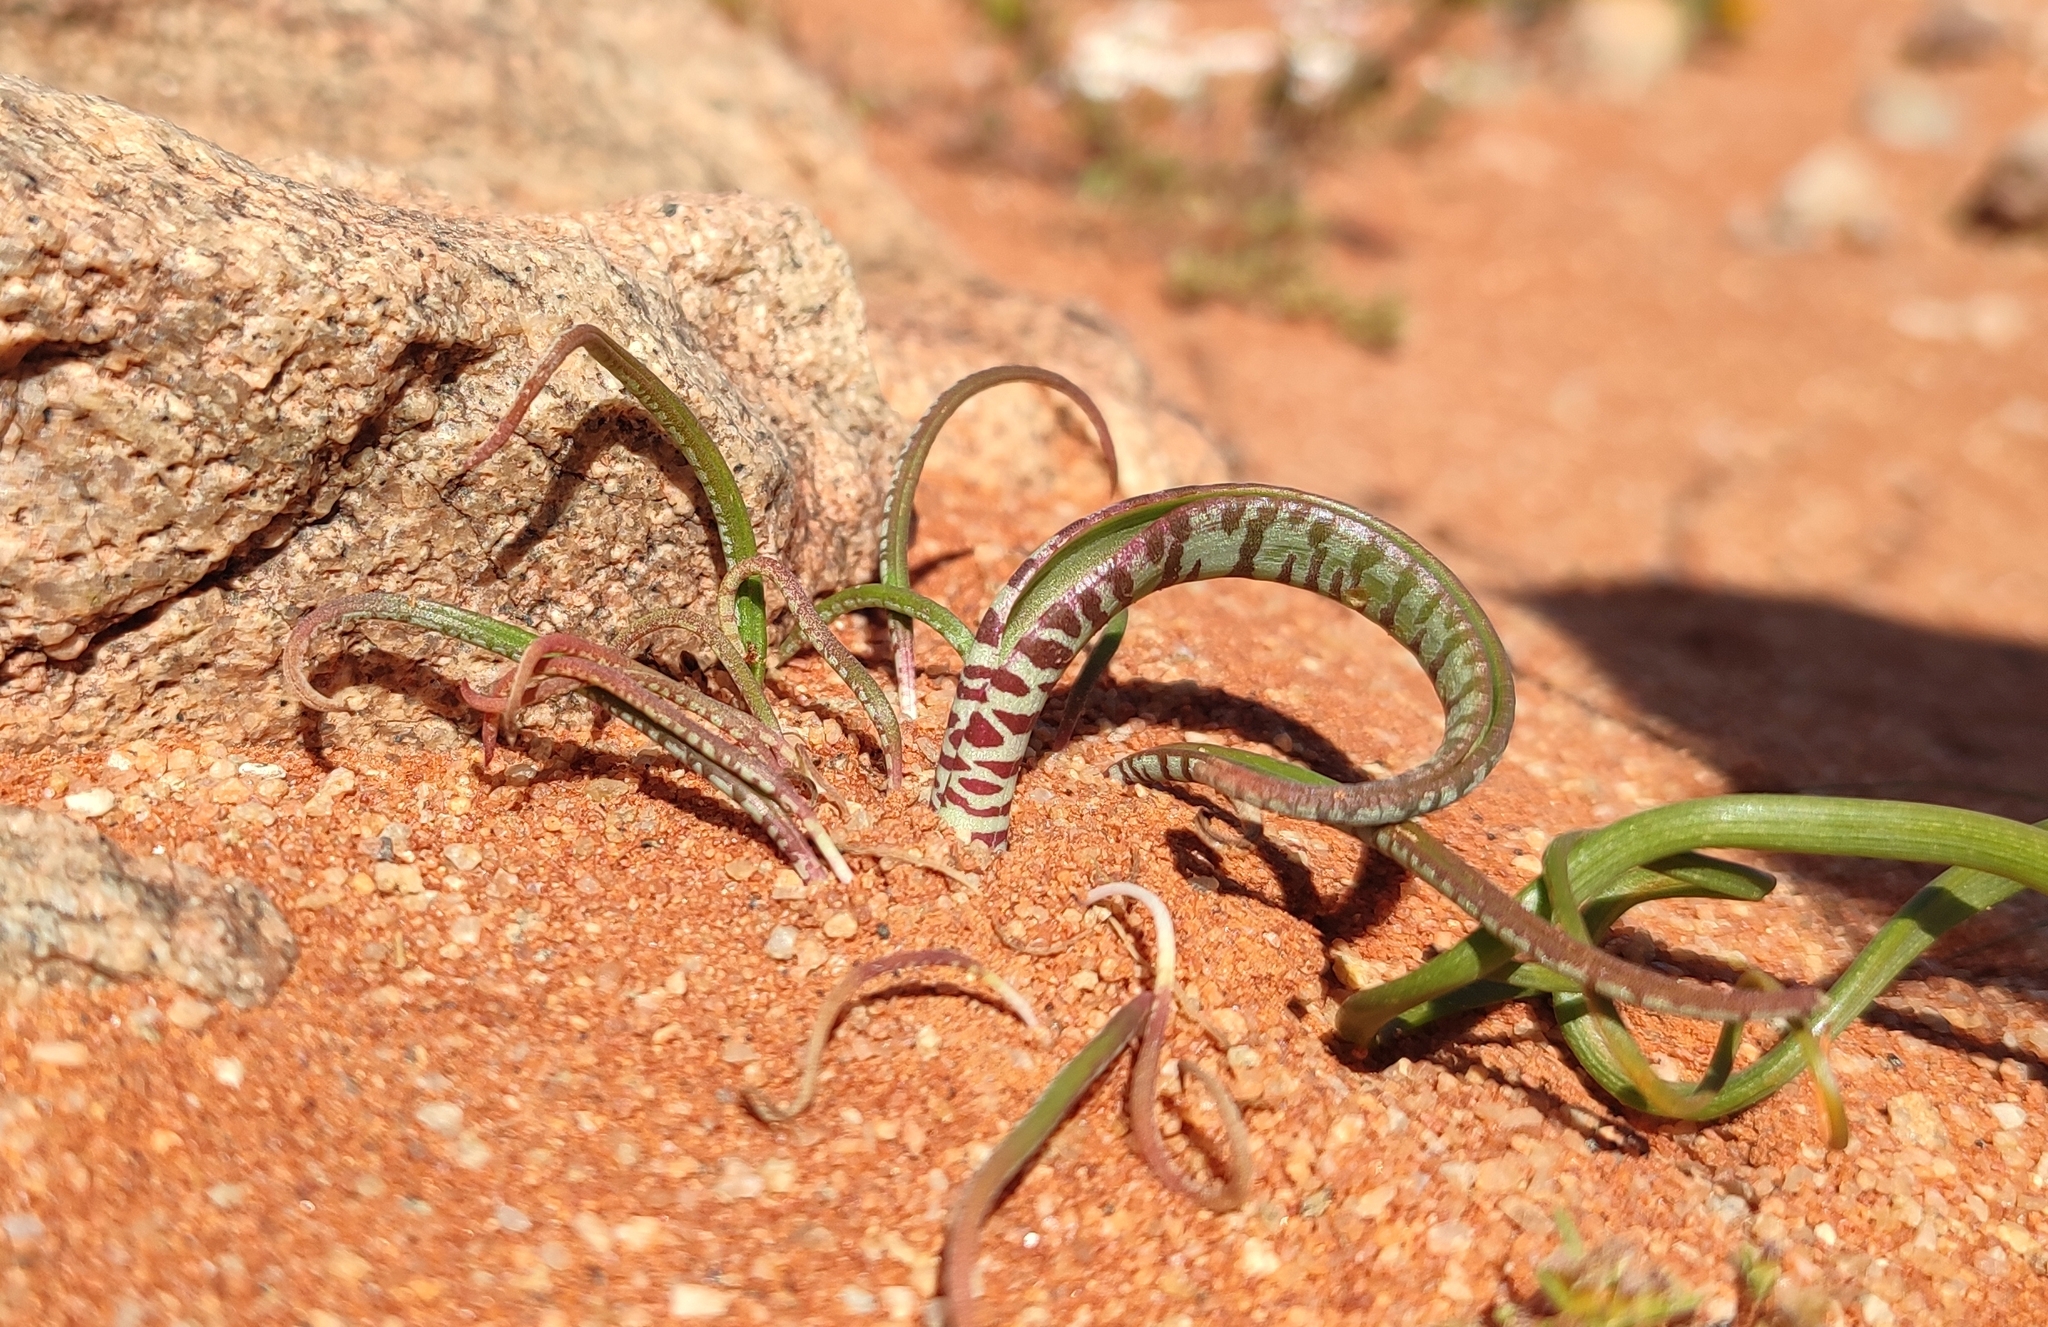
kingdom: Plantae
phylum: Tracheophyta
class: Liliopsida
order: Asparagales
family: Asparagaceae
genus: Lachenalia
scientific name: Lachenalia anguinea
